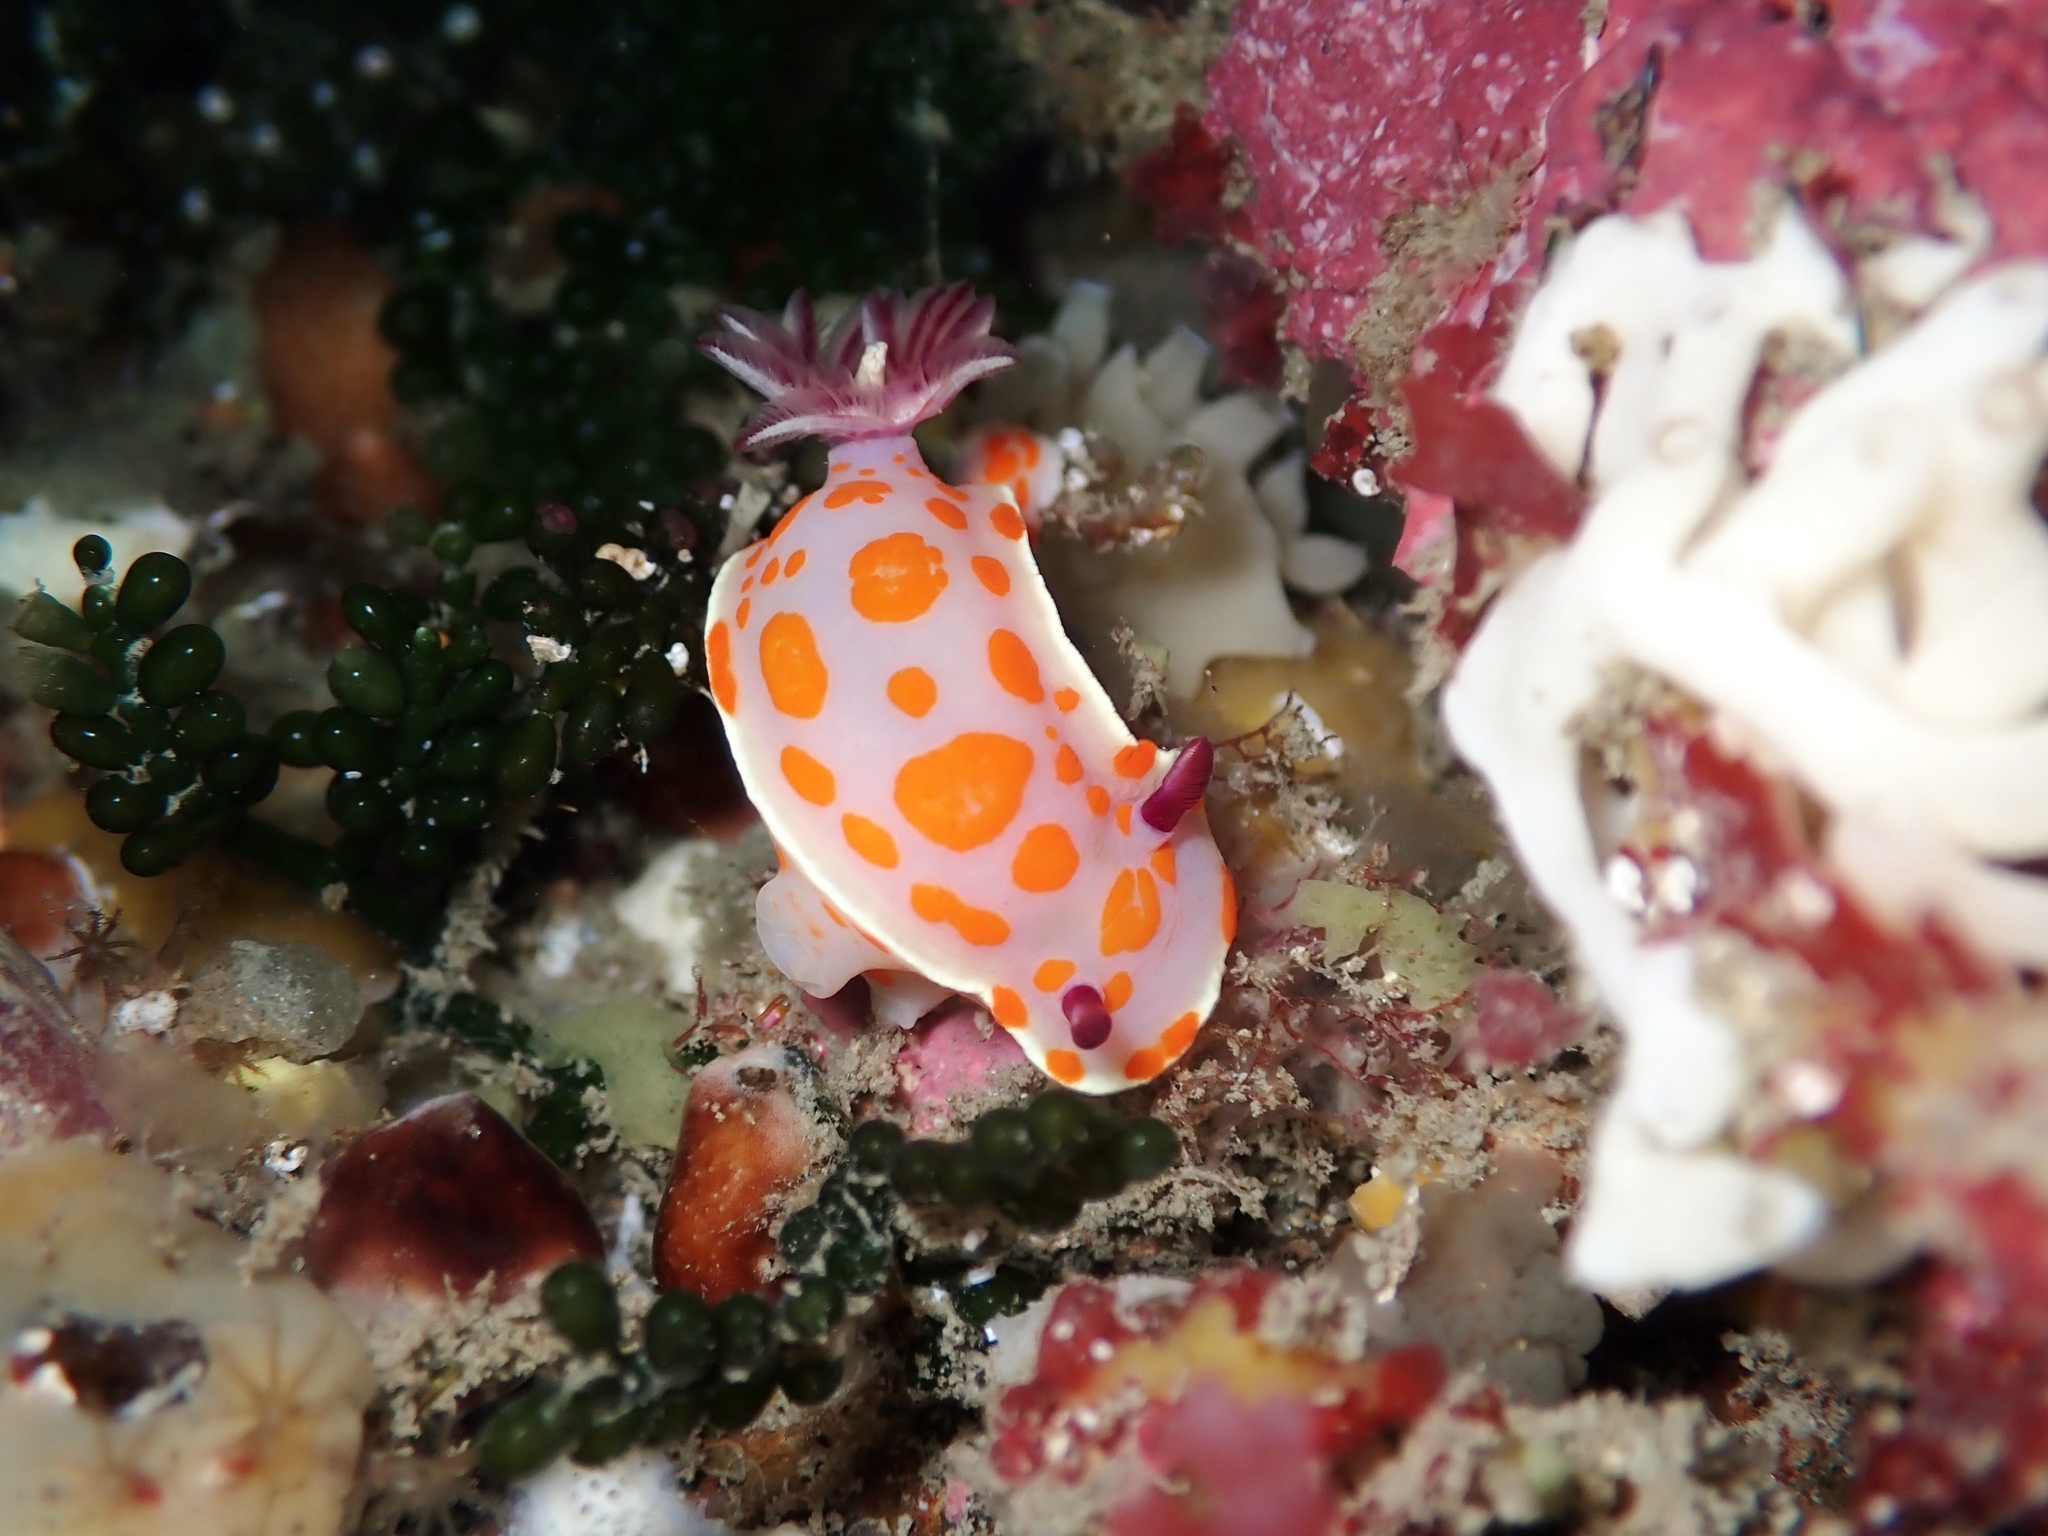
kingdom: Animalia
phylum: Mollusca
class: Gastropoda
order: Nudibranchia
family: Chromodorididae
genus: Ceratosoma
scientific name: Ceratosoma amoenum
